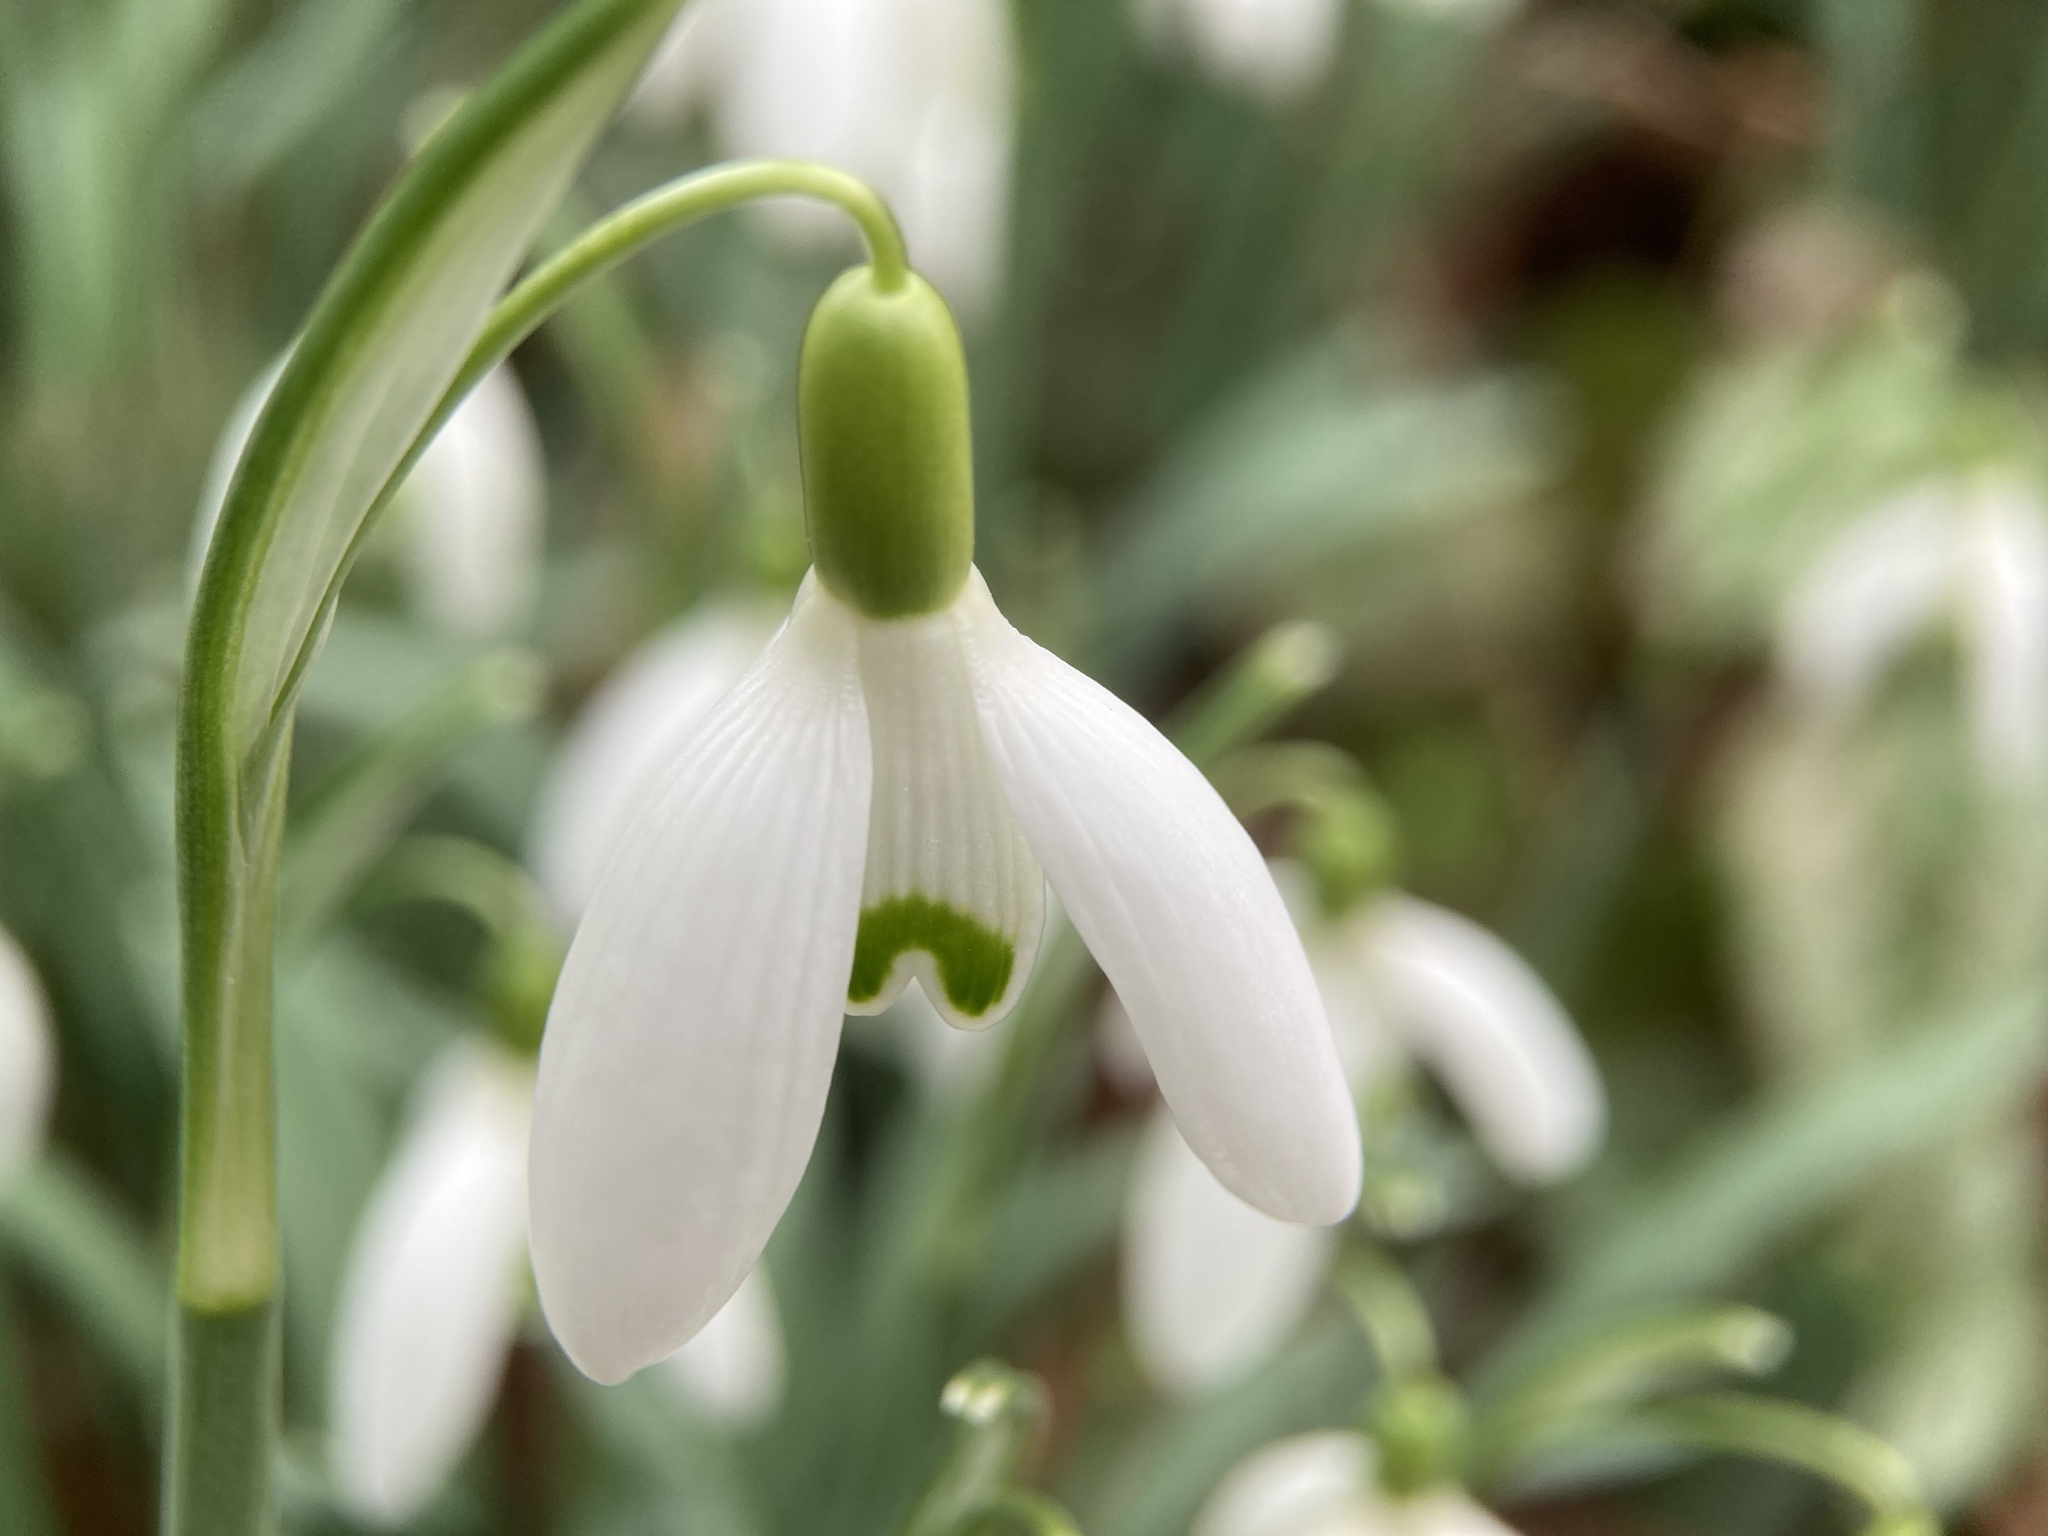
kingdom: Plantae
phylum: Tracheophyta
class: Liliopsida
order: Asparagales
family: Amaryllidaceae
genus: Galanthus
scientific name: Galanthus nivalis
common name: Snowdrop
